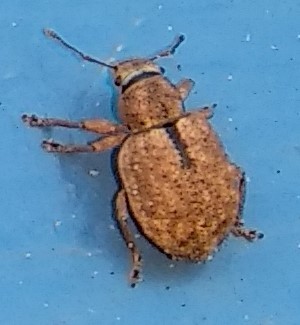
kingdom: Animalia
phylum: Arthropoda
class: Insecta
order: Coleoptera
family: Curculionidae
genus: Strophosoma
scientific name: Strophosoma melanogrammum
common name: Weevil
